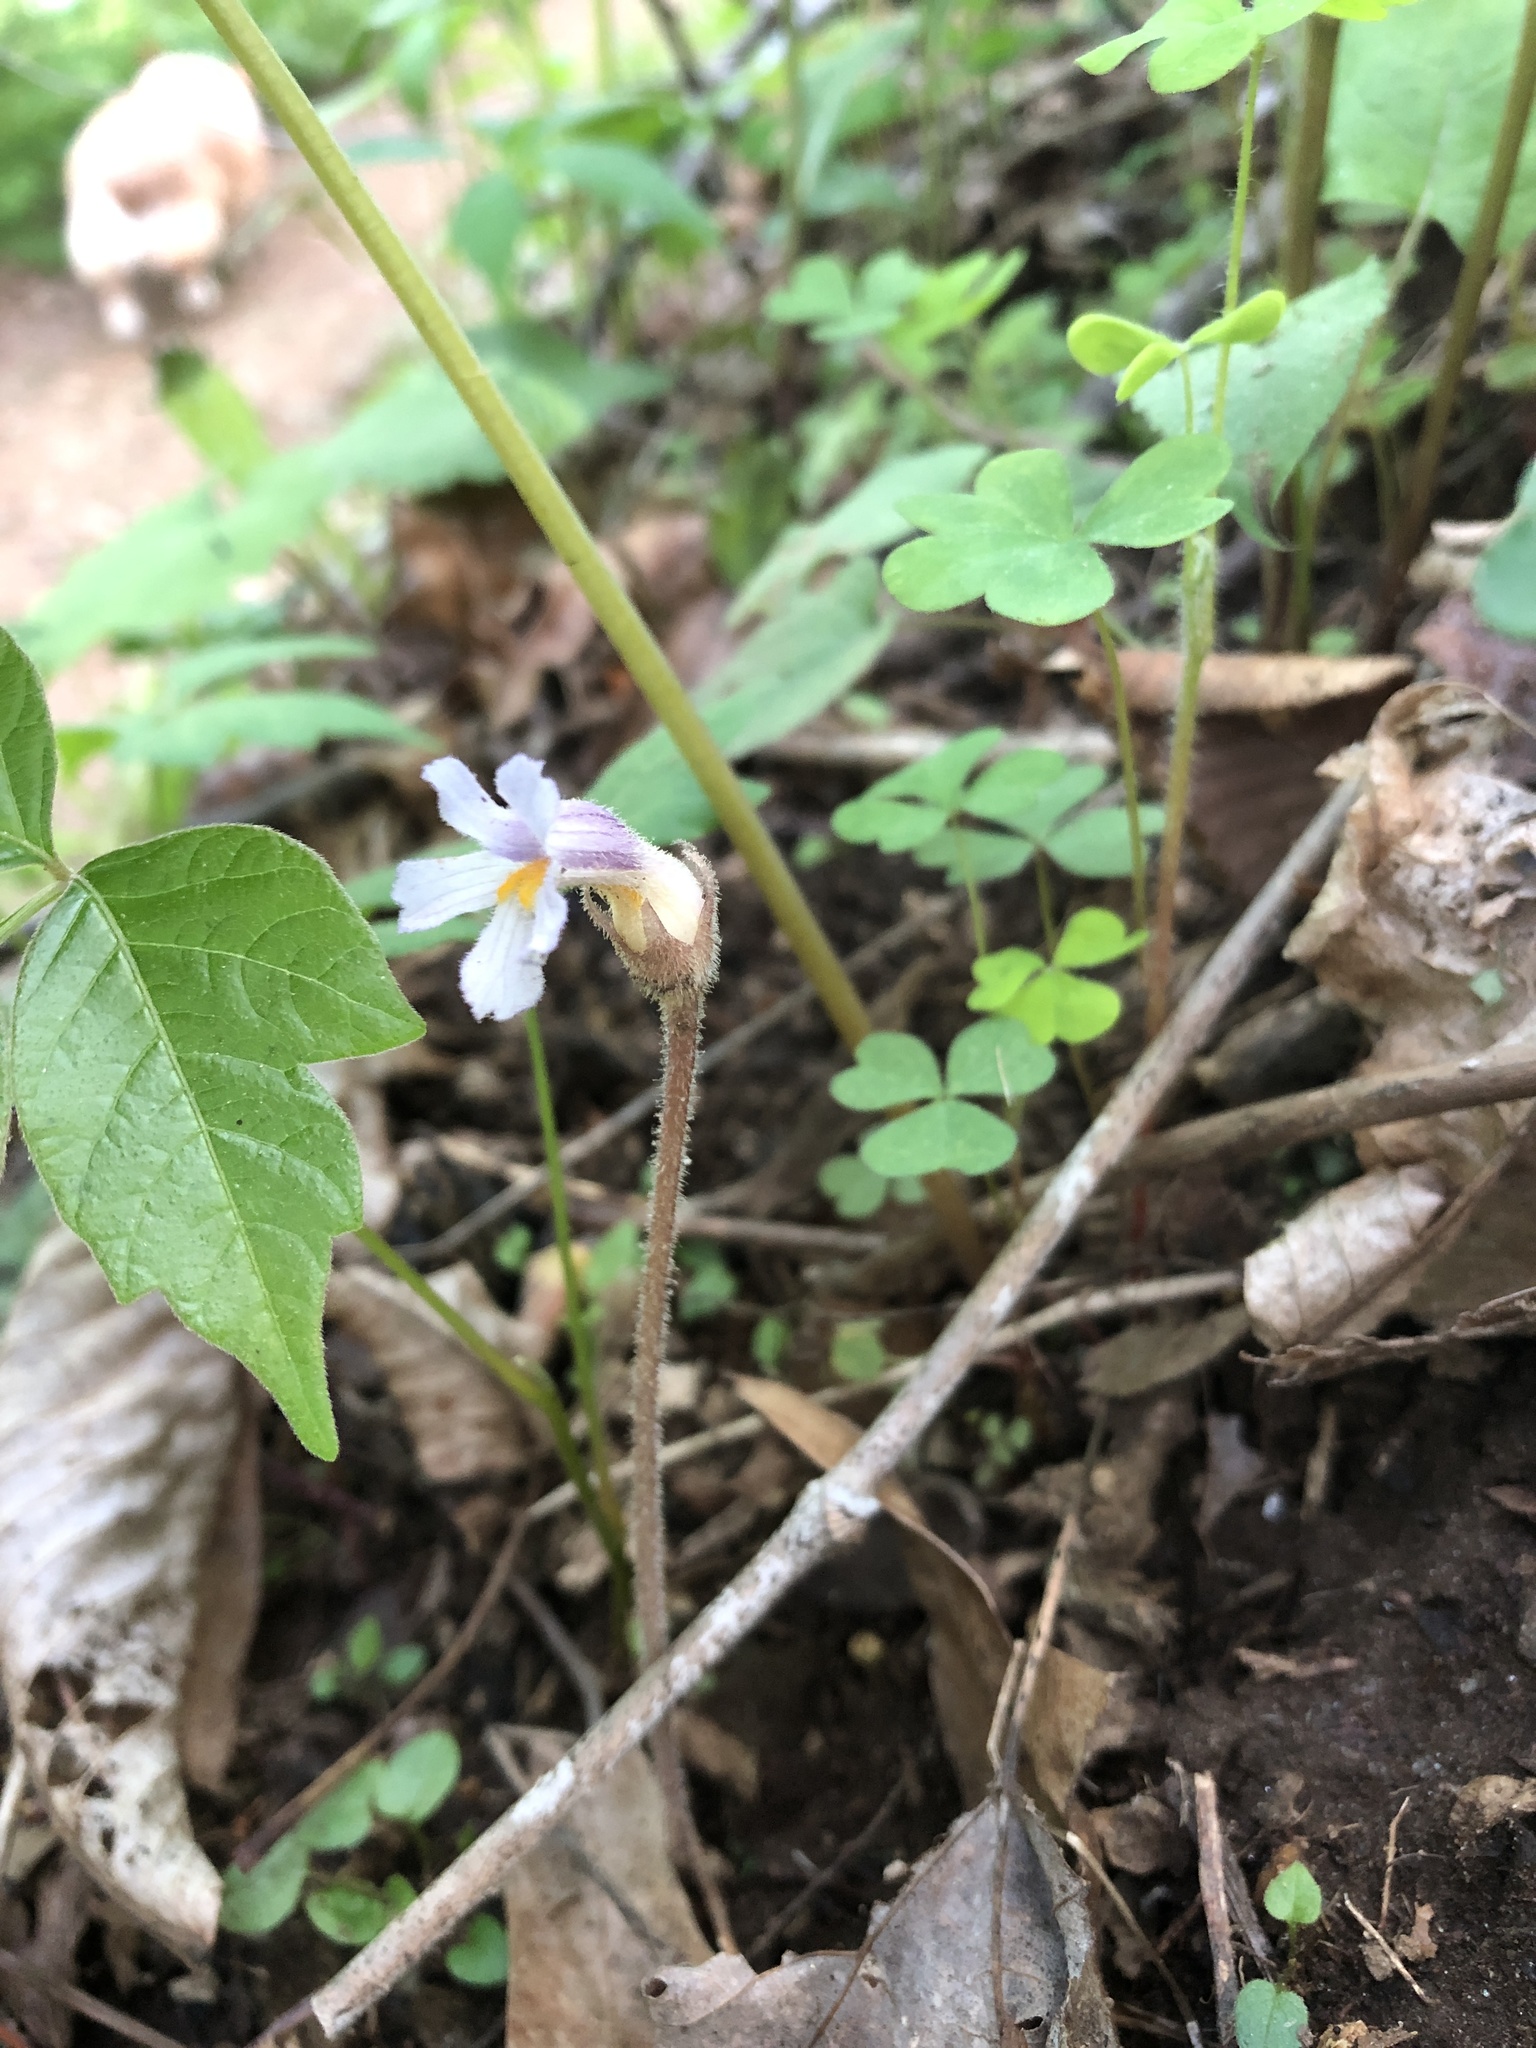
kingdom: Plantae
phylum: Tracheophyta
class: Magnoliopsida
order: Lamiales
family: Orobanchaceae
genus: Aphyllon
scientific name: Aphyllon uniflorum
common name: One-flowered broomrape
